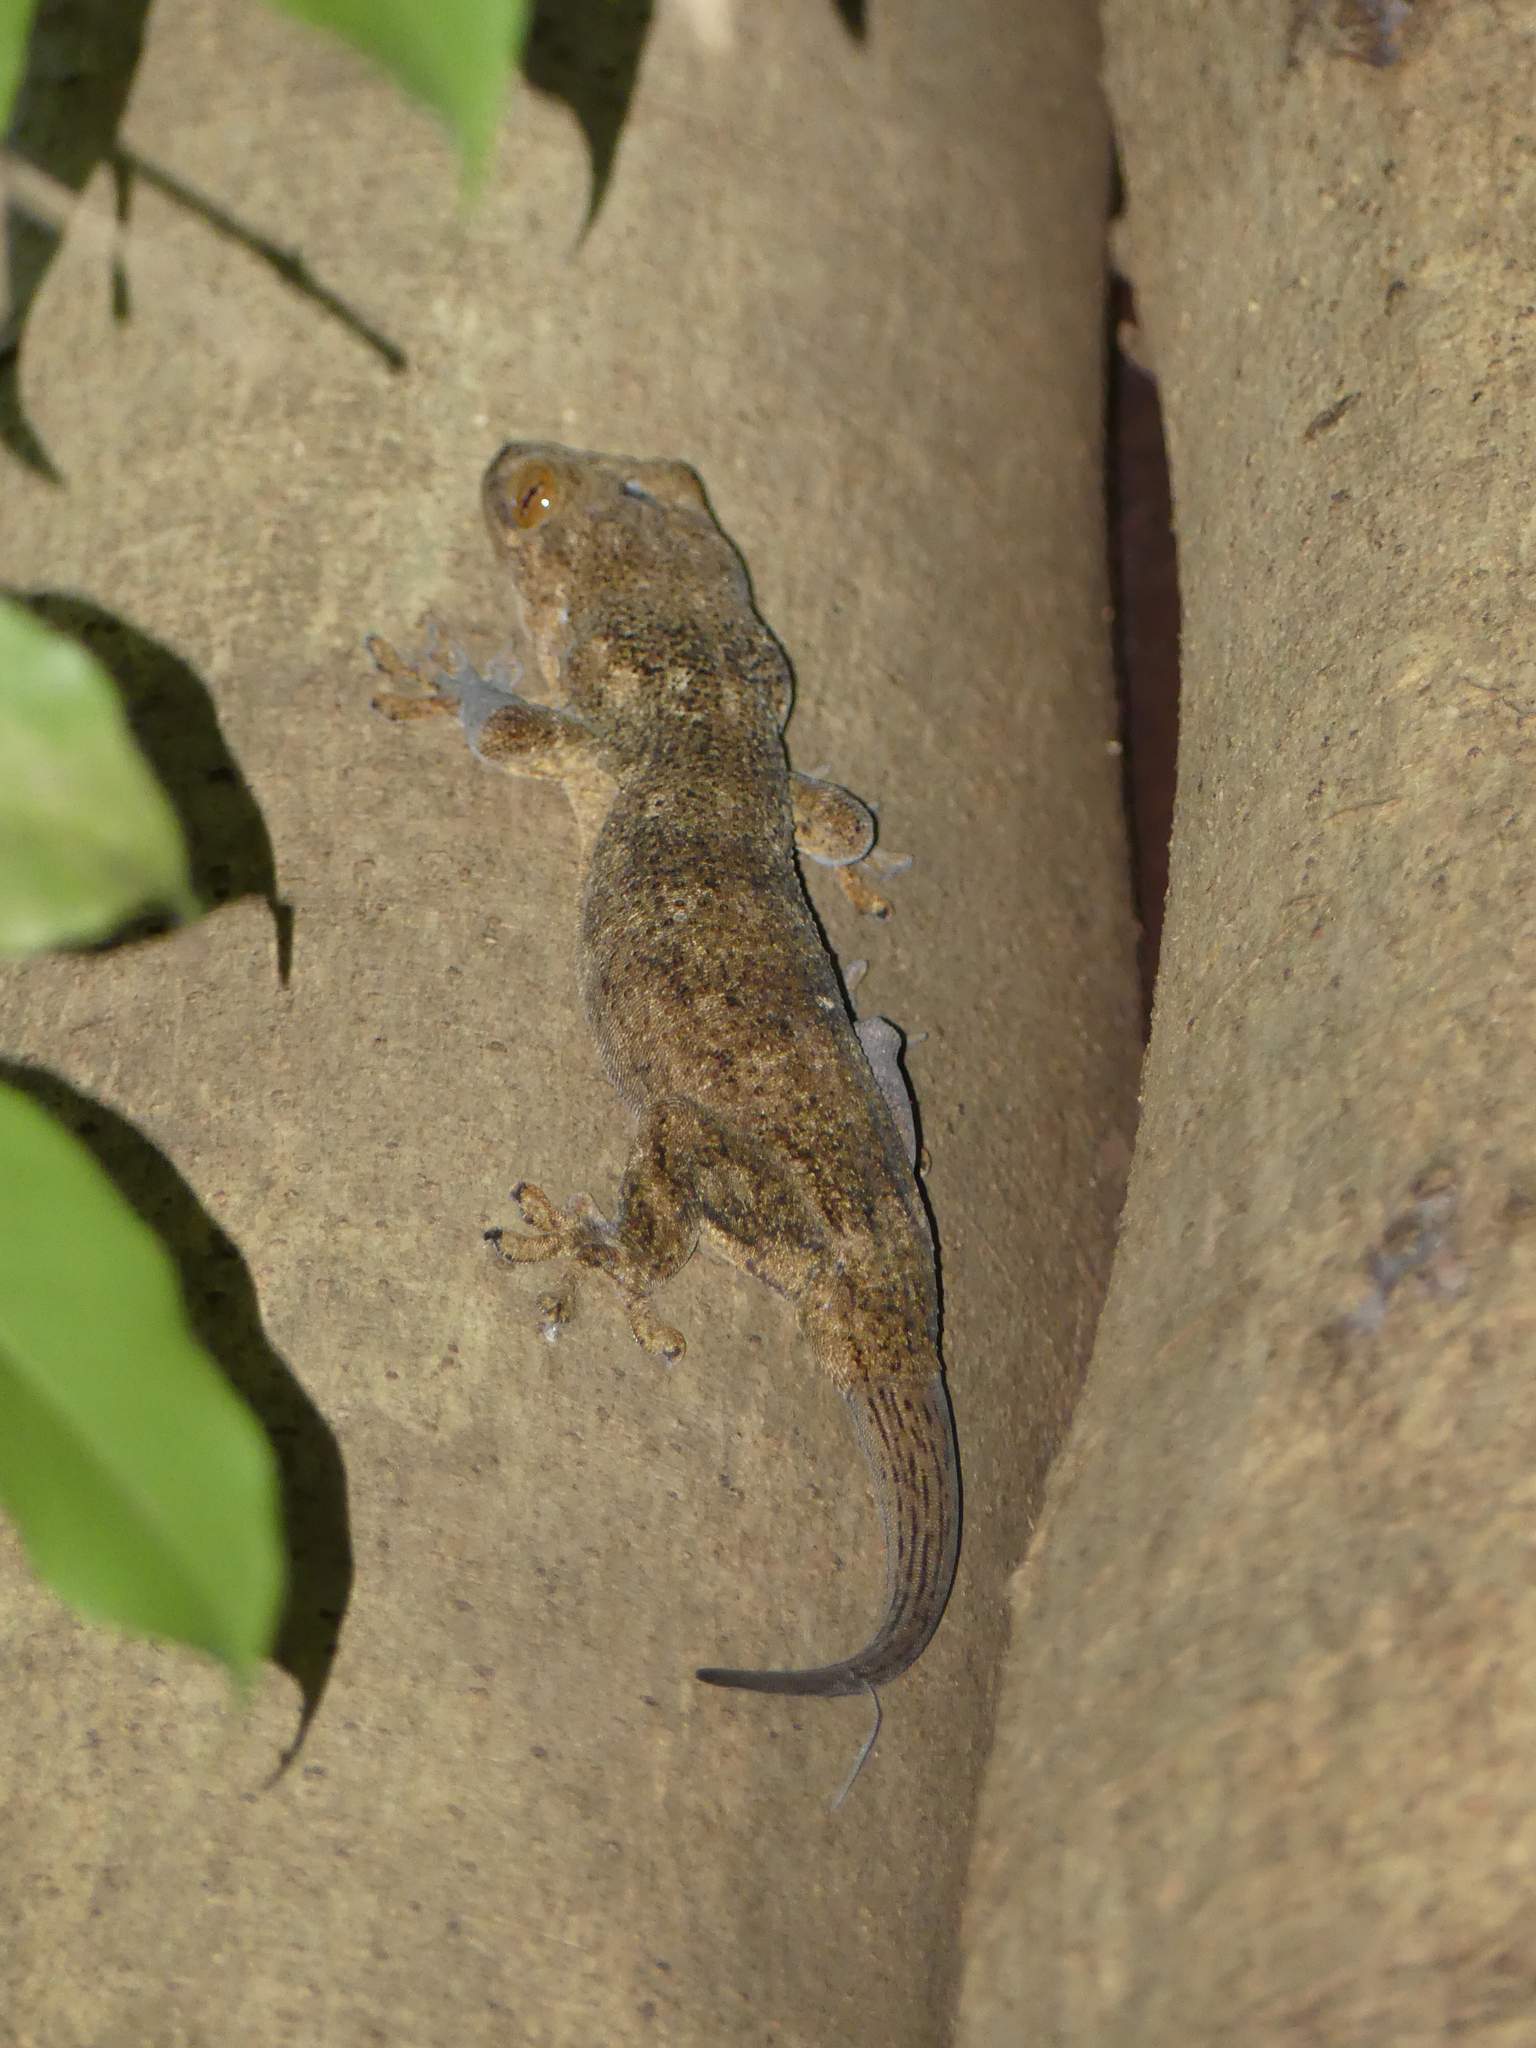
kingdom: Animalia
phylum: Chordata
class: Squamata
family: Gekkonidae
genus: Blaesodactylus
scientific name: Blaesodactylus boivini
